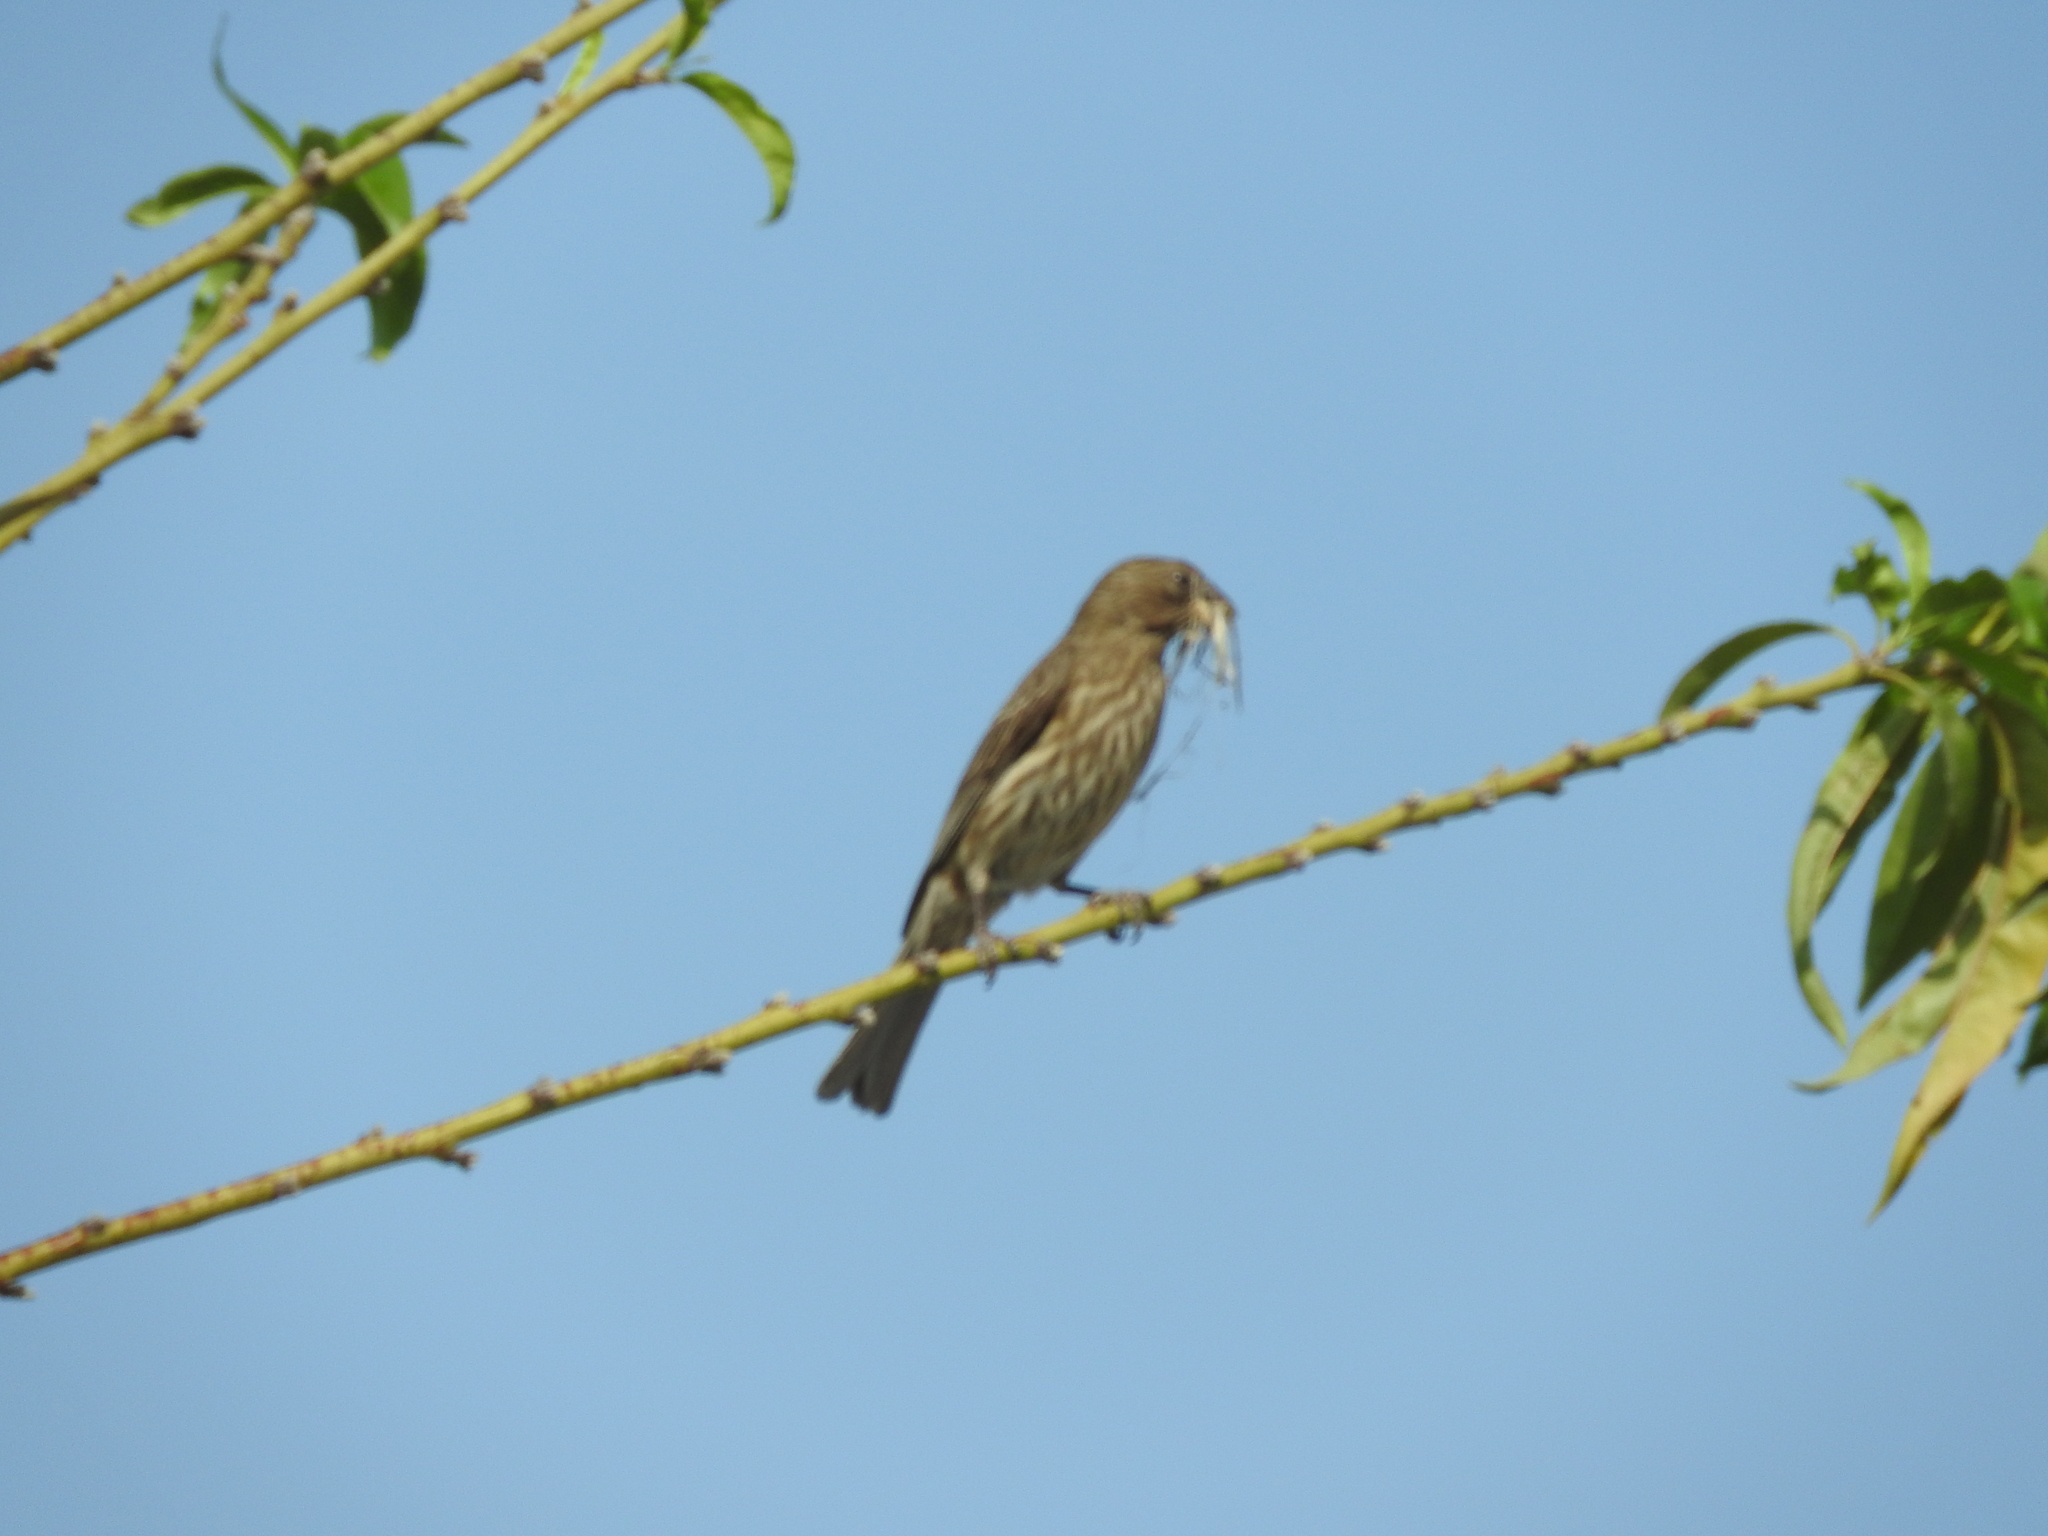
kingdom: Animalia
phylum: Chordata
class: Aves
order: Passeriformes
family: Fringillidae
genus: Haemorhous
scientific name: Haemorhous mexicanus
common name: House finch
